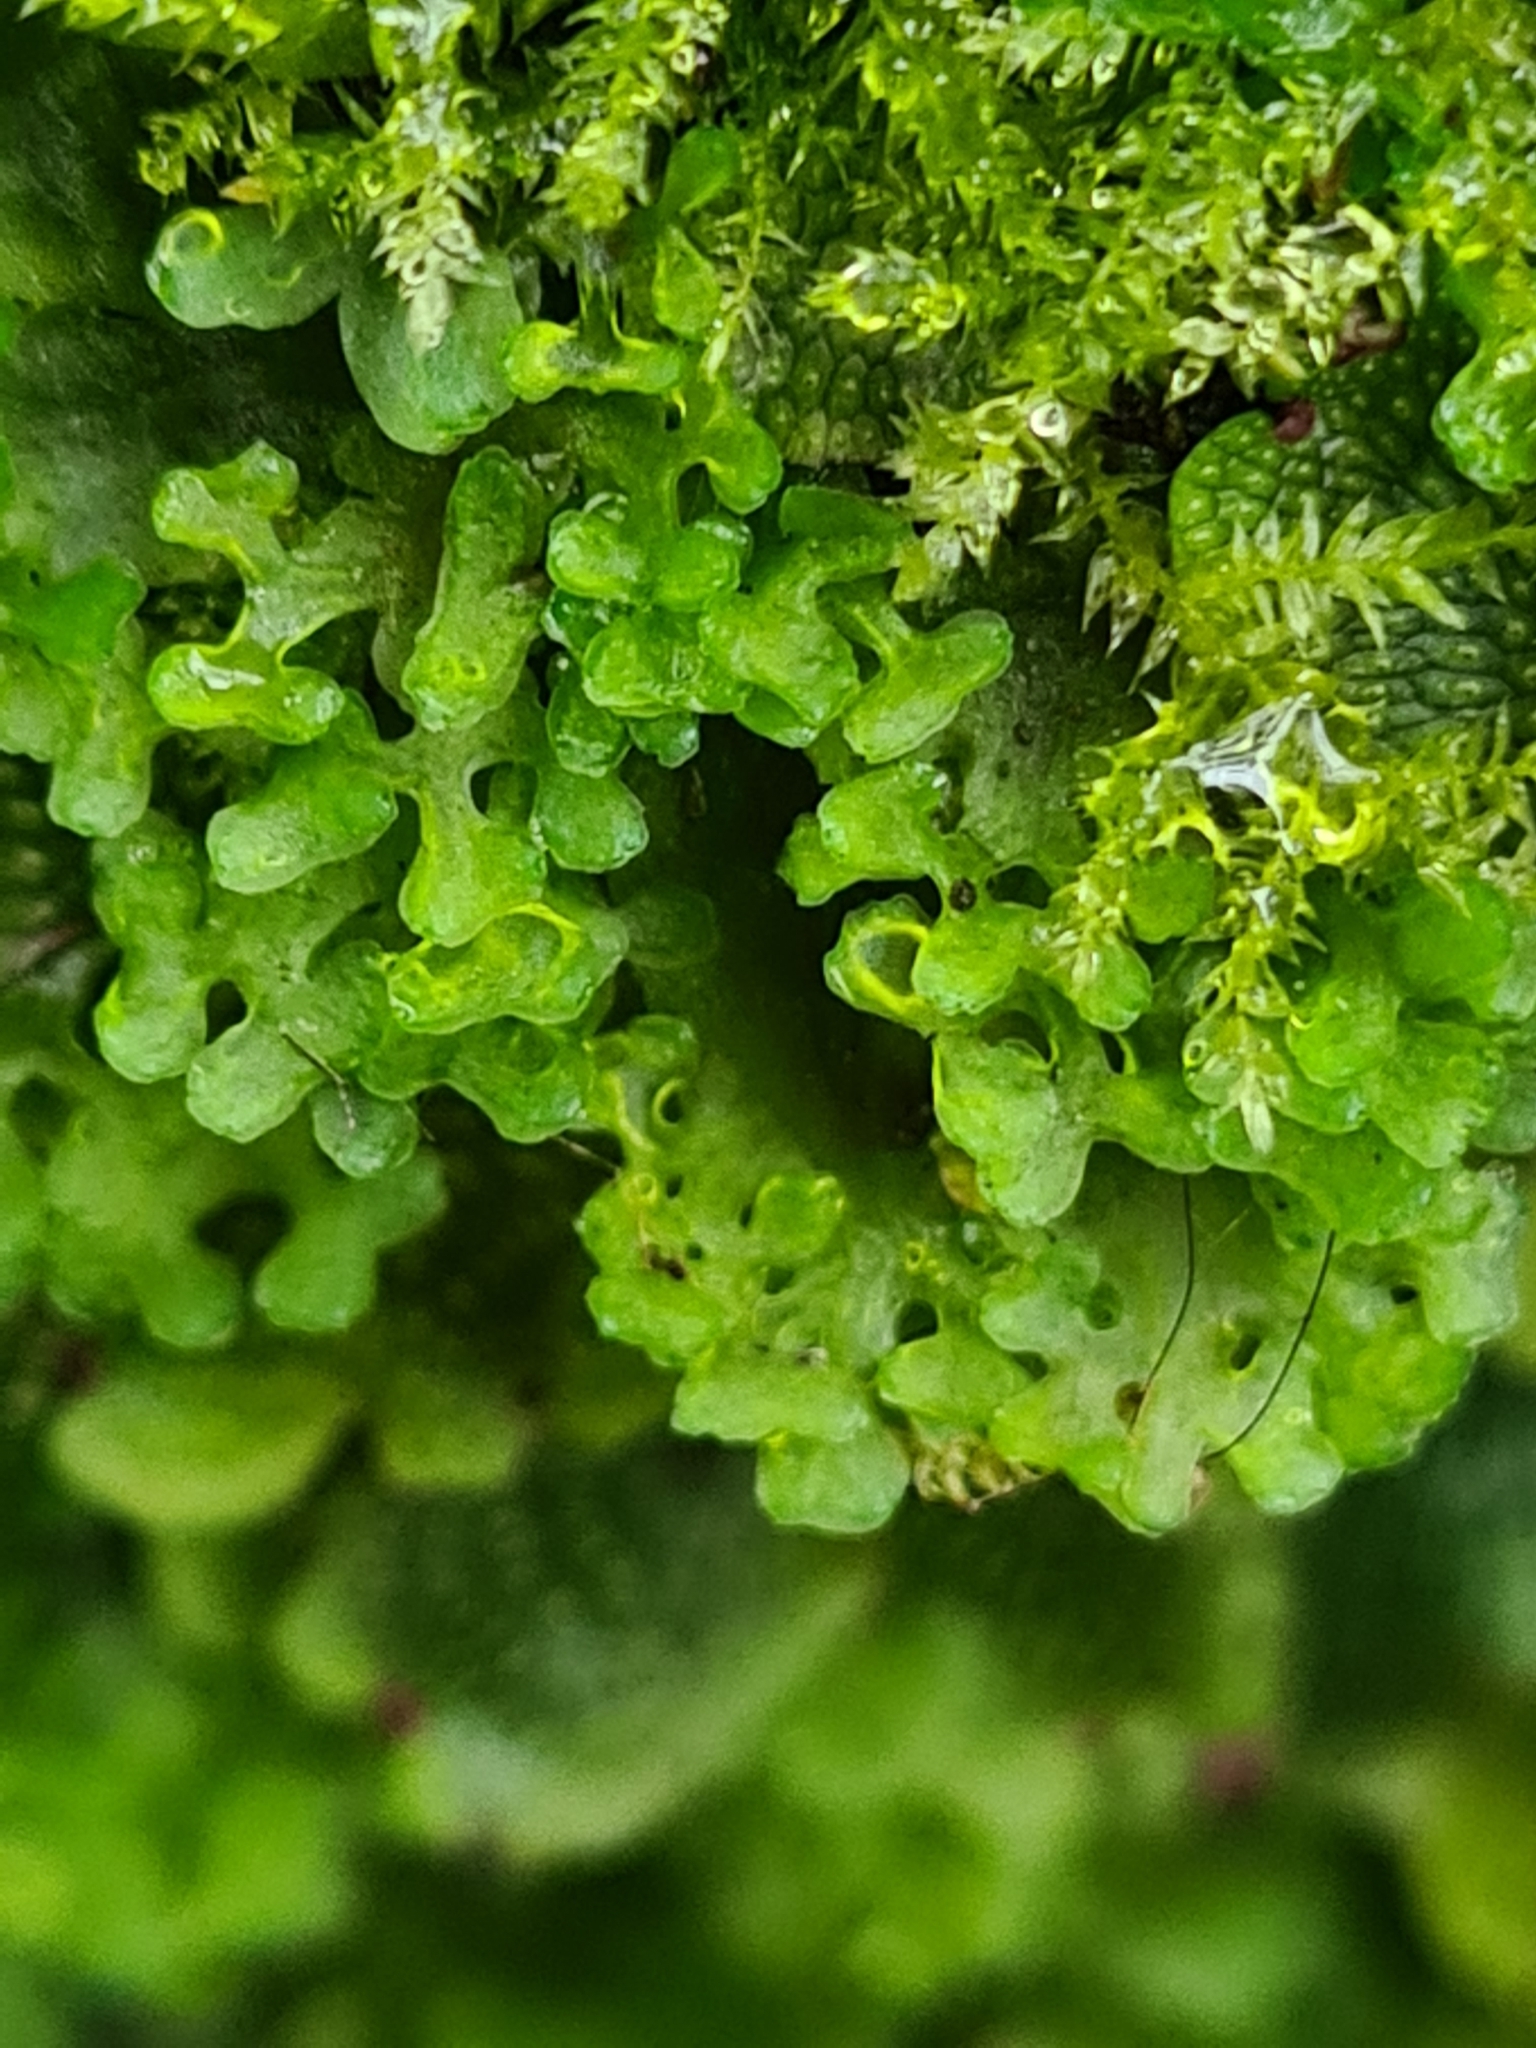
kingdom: Plantae
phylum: Marchantiophyta
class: Jungermanniopsida
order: Pelliales
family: Pelliaceae
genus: Apopellia
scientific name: Apopellia endiviifolia
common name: Endive pellia
